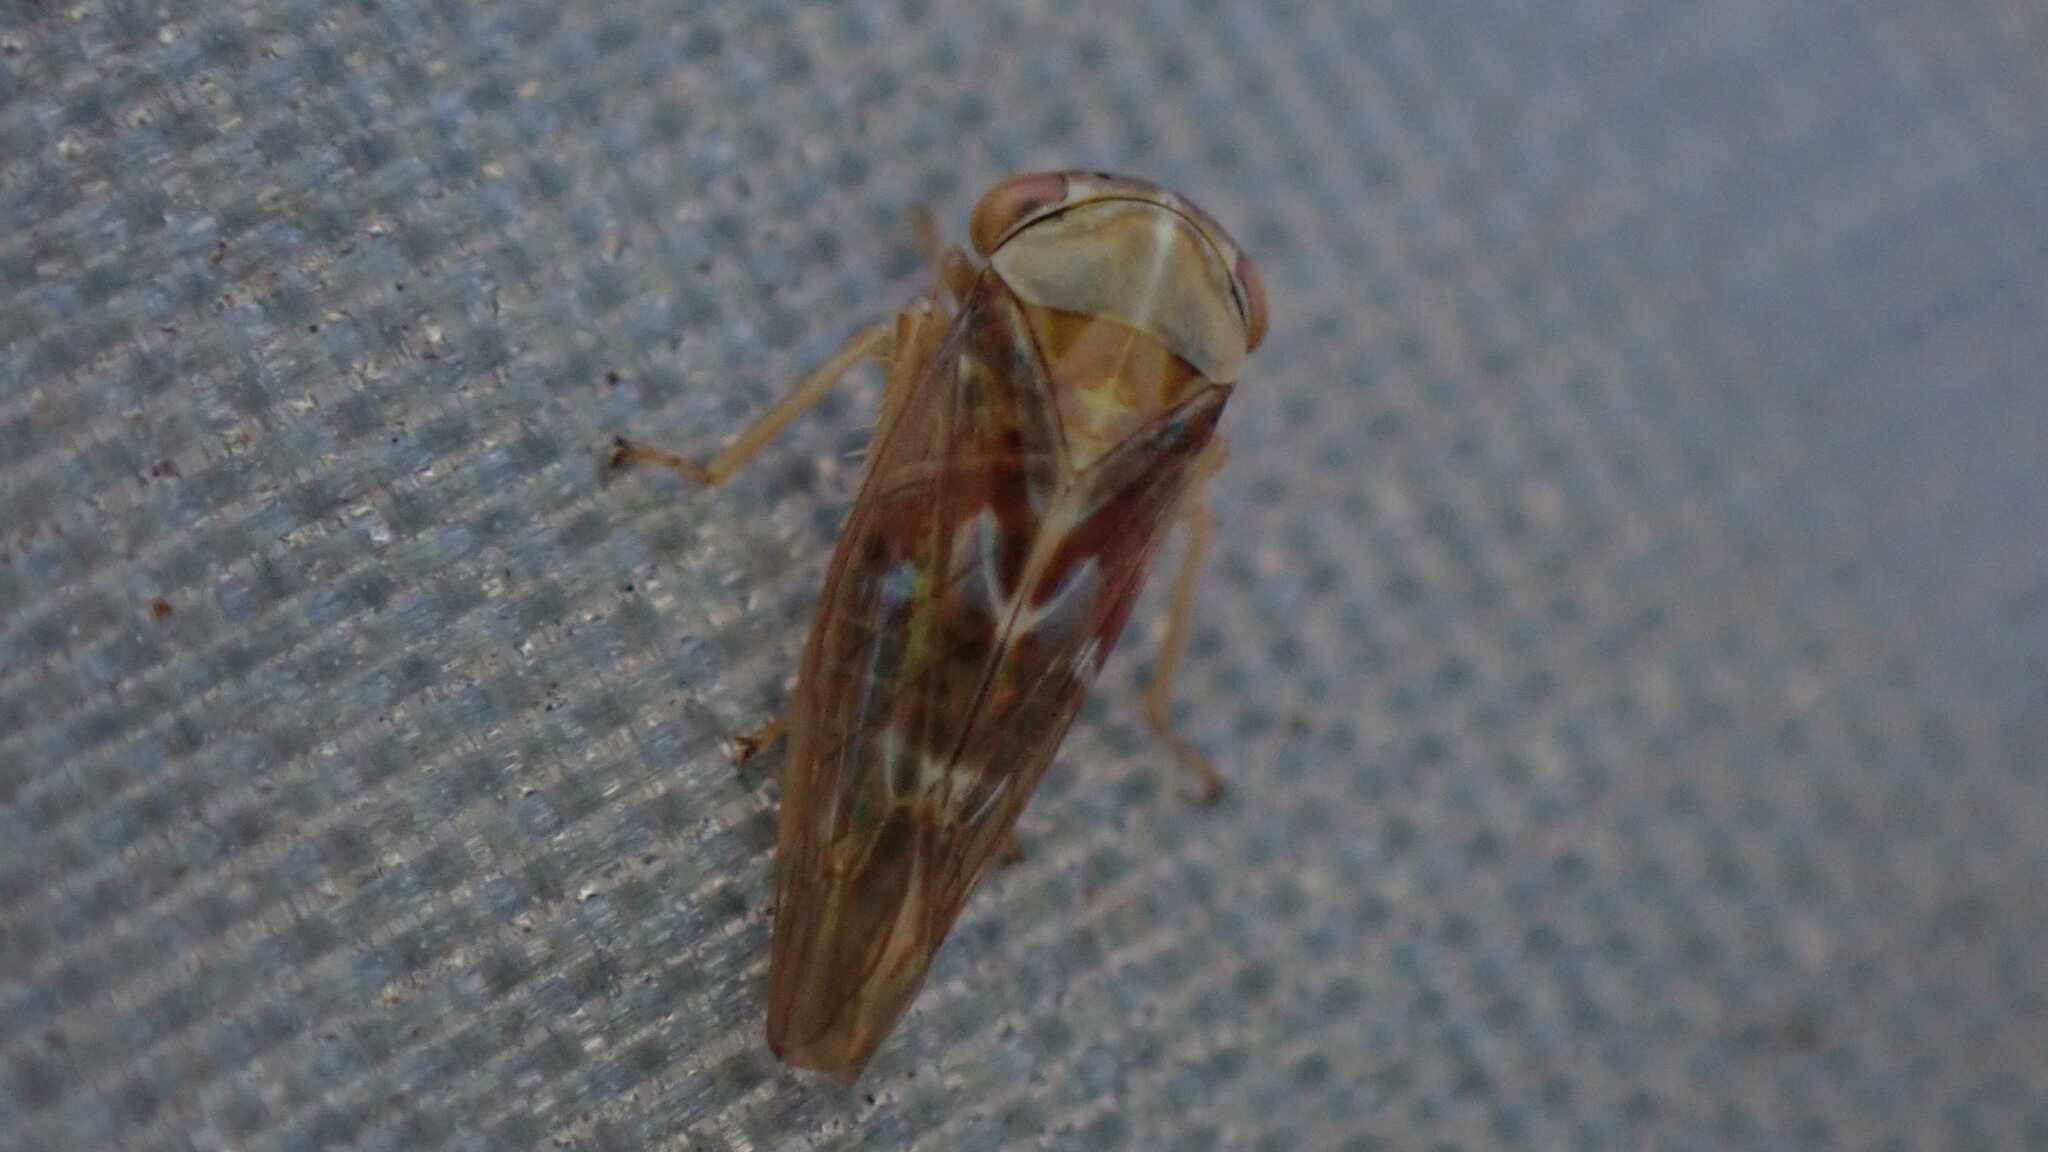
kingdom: Animalia
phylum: Arthropoda
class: Insecta
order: Hemiptera
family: Cicadellidae
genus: Tremulicerus
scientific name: Tremulicerus fulgidus
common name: Leafhopper
